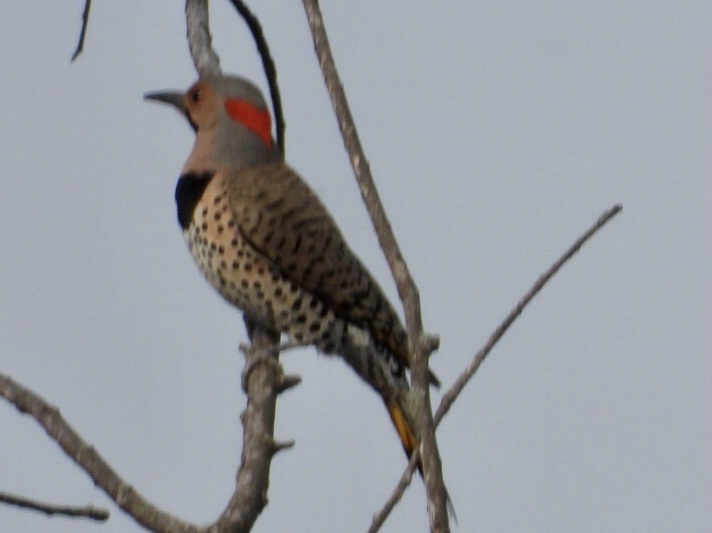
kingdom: Animalia
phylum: Chordata
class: Aves
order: Piciformes
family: Picidae
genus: Colaptes
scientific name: Colaptes auratus
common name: Northern flicker
